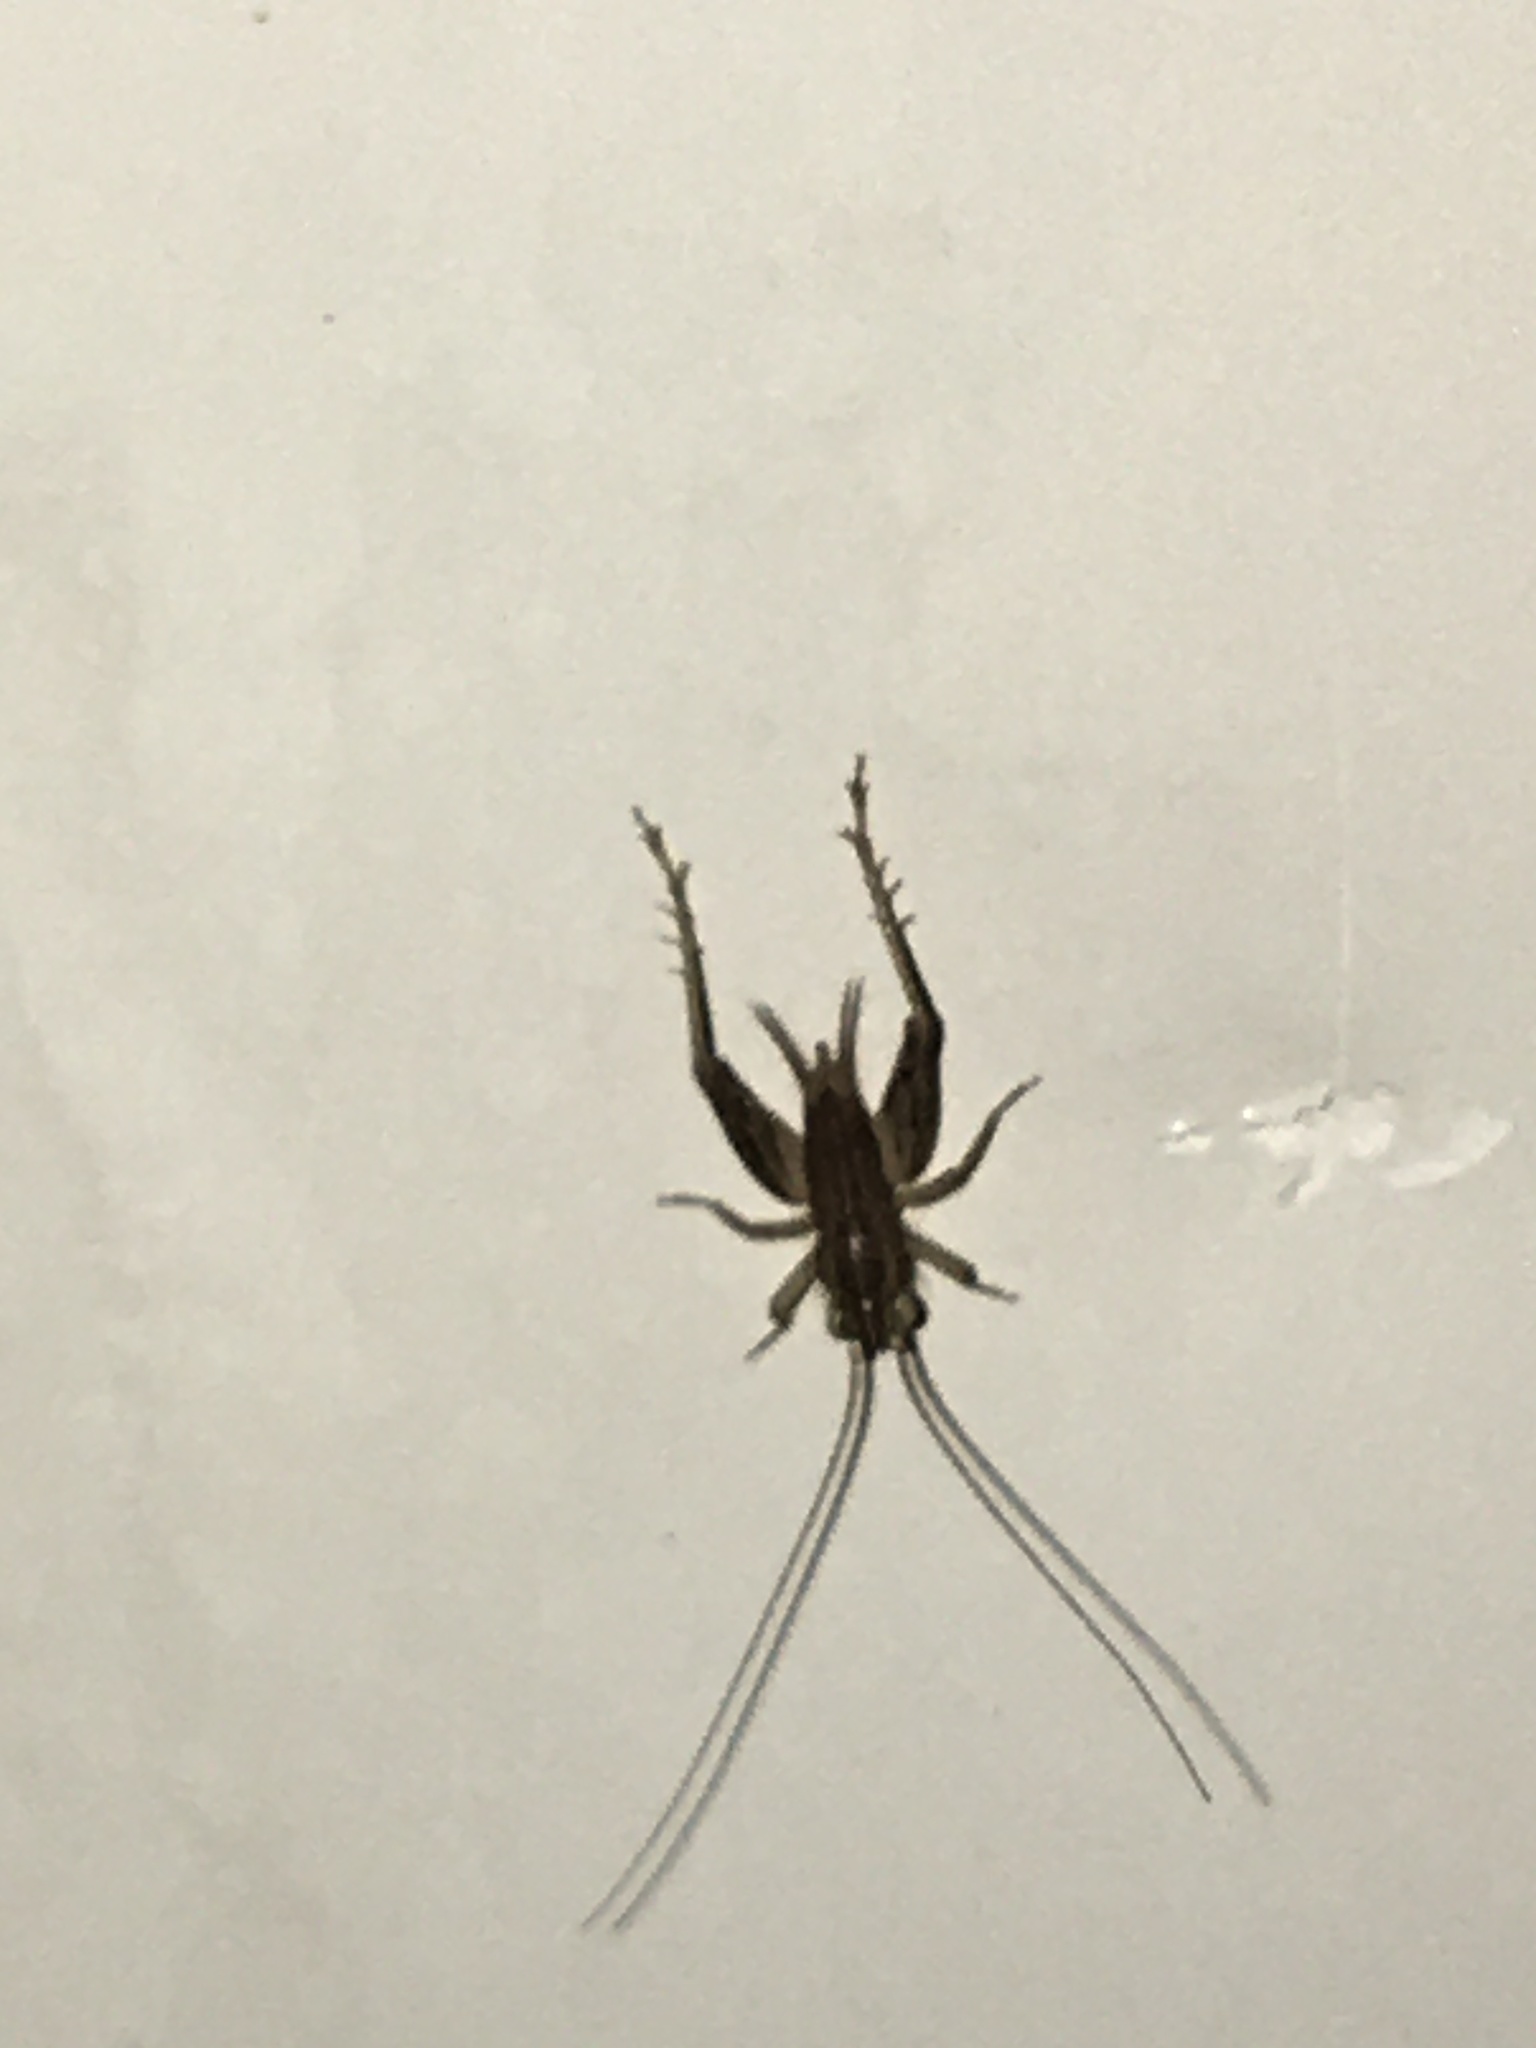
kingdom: Animalia
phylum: Arthropoda
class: Insecta
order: Orthoptera
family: Trigonidiidae
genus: Falcicula
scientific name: Falcicula hebardi
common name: Hebard's bush cricket
